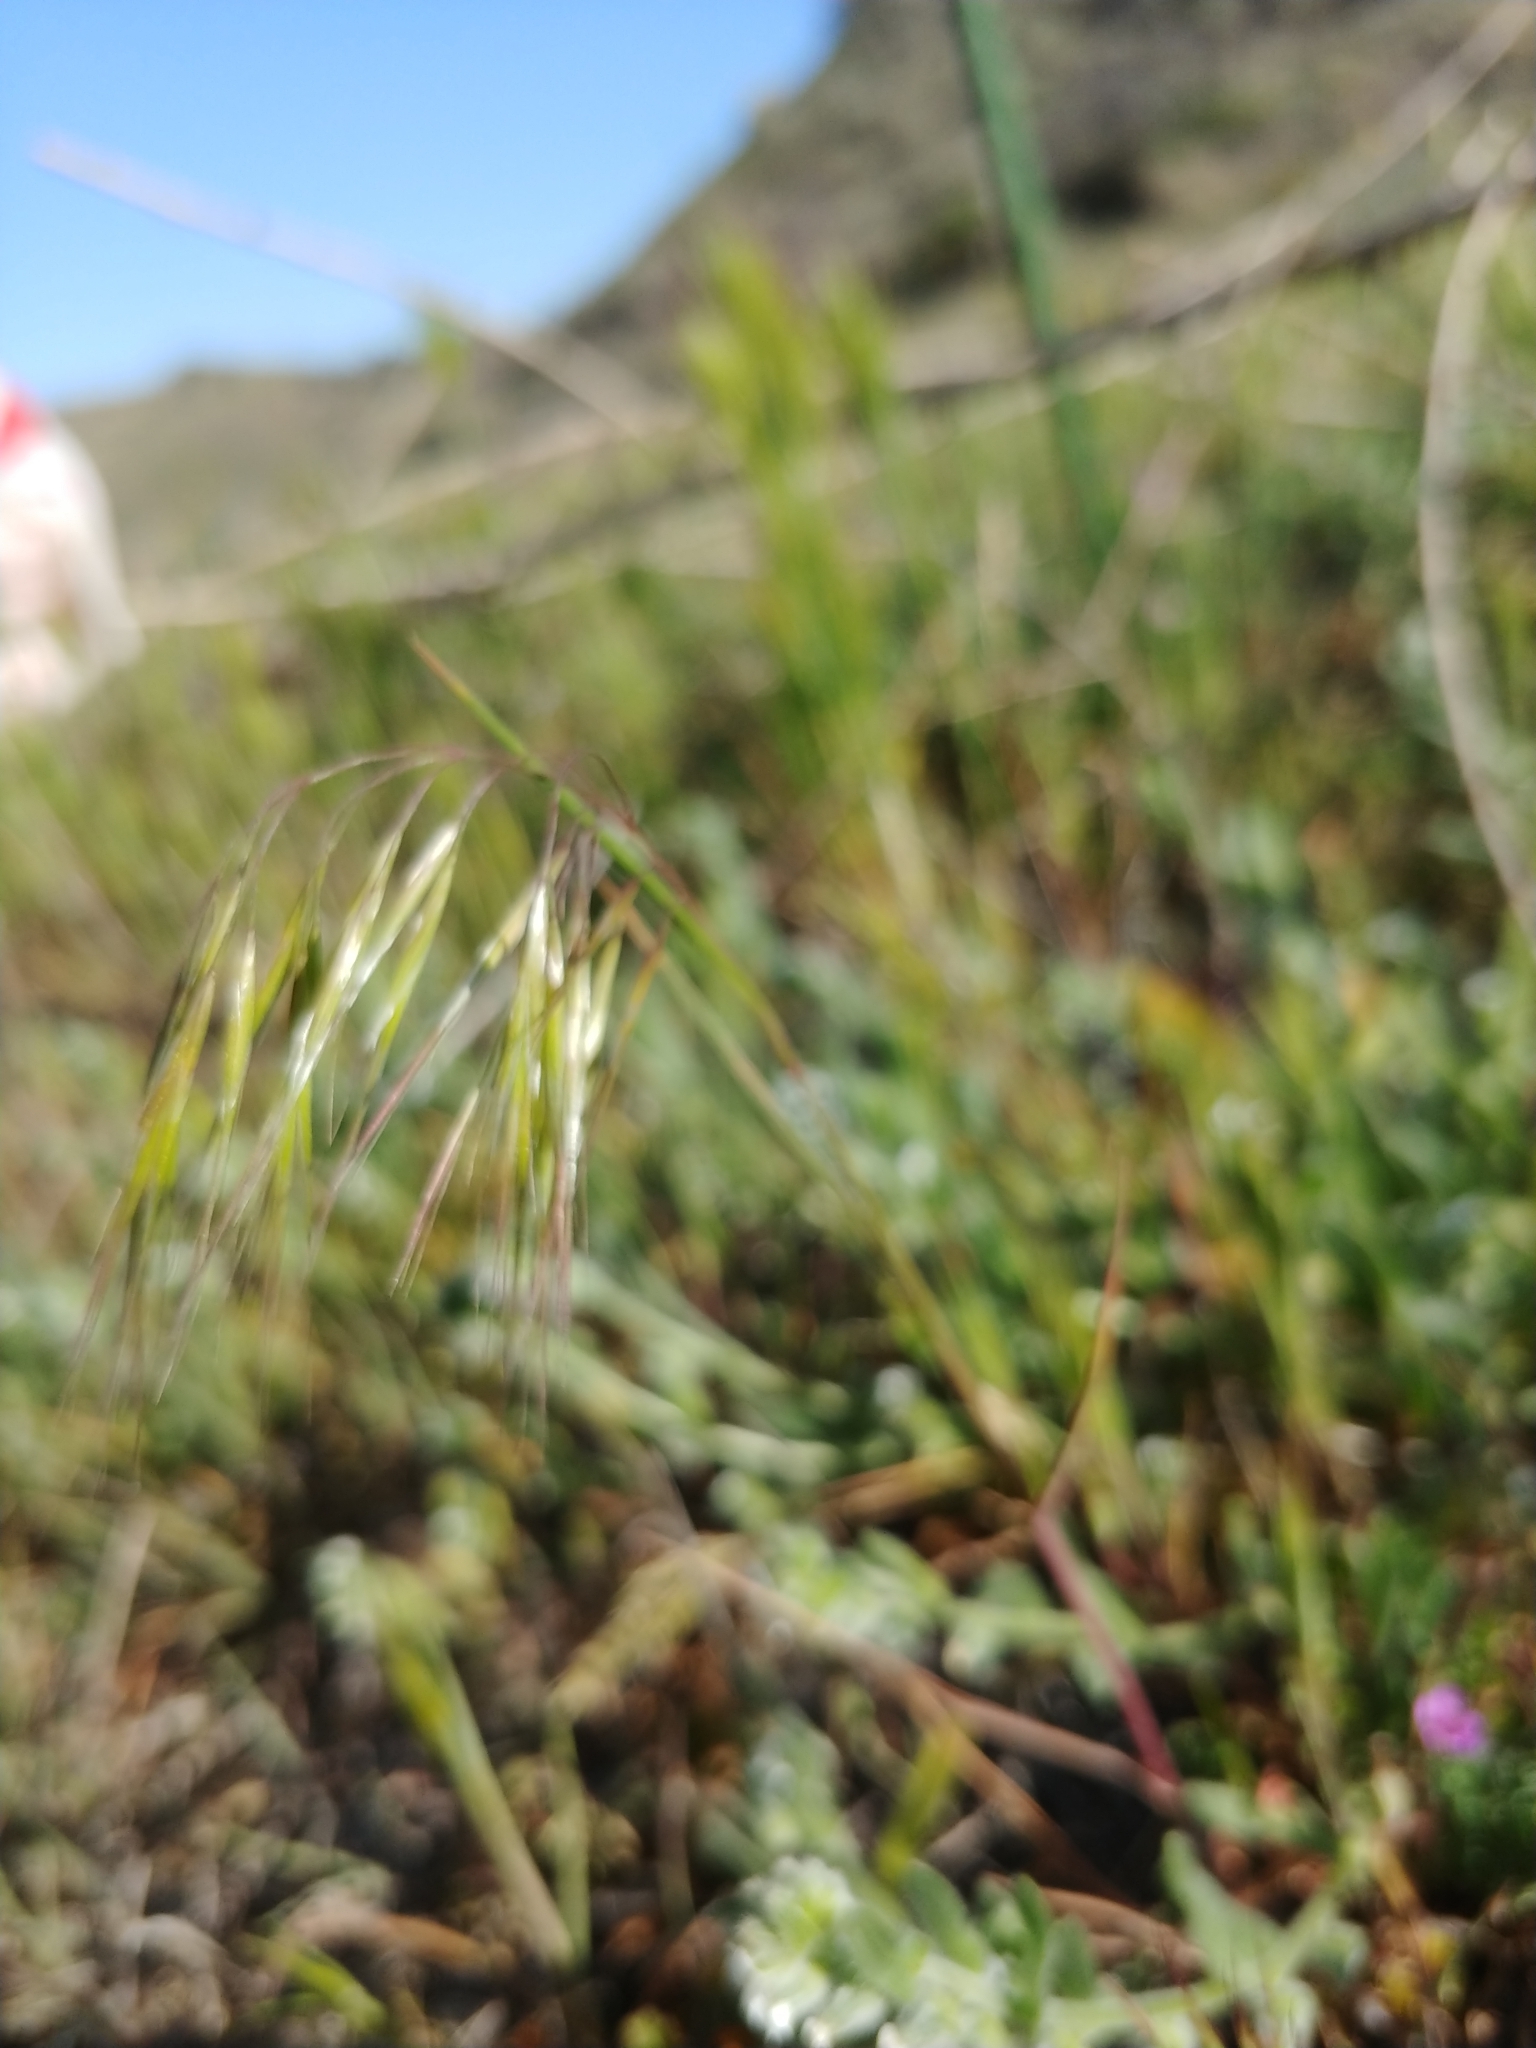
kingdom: Plantae
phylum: Tracheophyta
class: Liliopsida
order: Poales
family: Poaceae
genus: Bromus
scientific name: Bromus tectorum
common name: Cheatgrass
